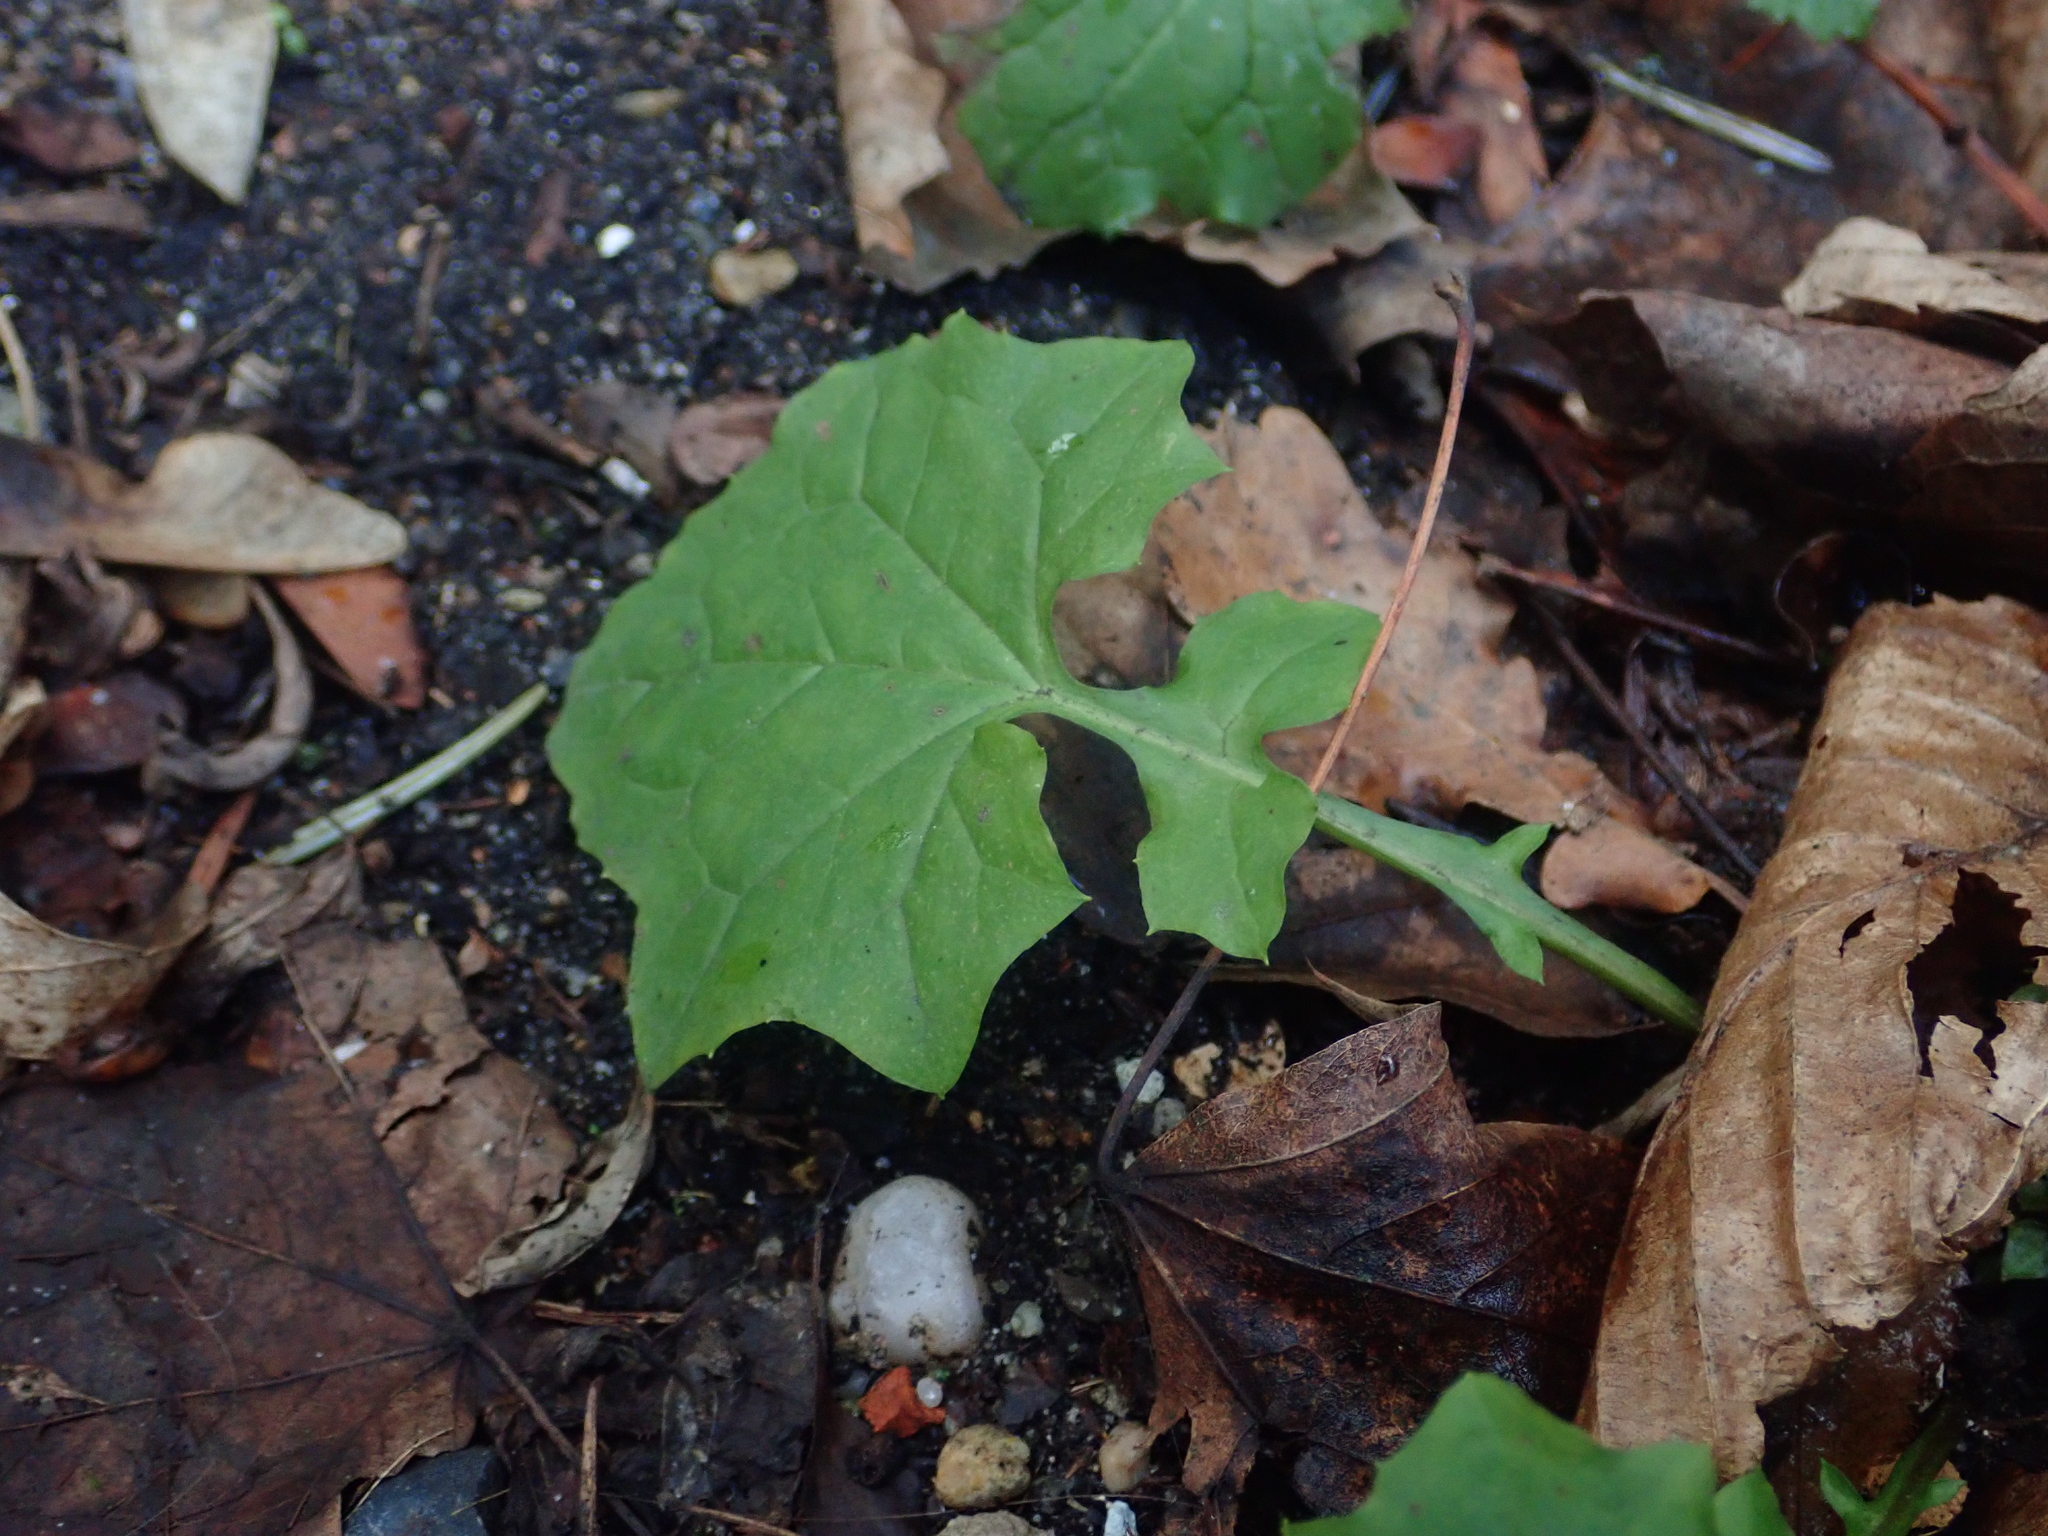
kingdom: Plantae
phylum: Tracheophyta
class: Magnoliopsida
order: Asterales
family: Asteraceae
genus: Mycelis
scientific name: Mycelis muralis
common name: Wall lettuce
